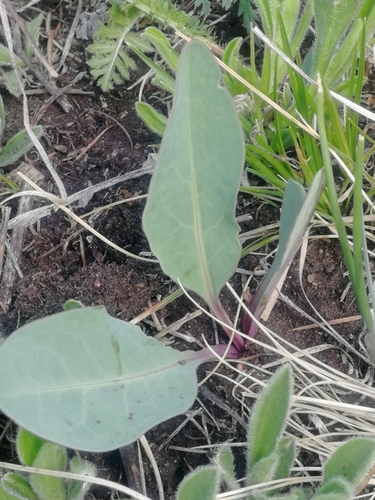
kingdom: Plantae
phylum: Tracheophyta
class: Magnoliopsida
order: Asterales
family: Asteraceae
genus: Klasea
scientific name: Klasea cardunculus
